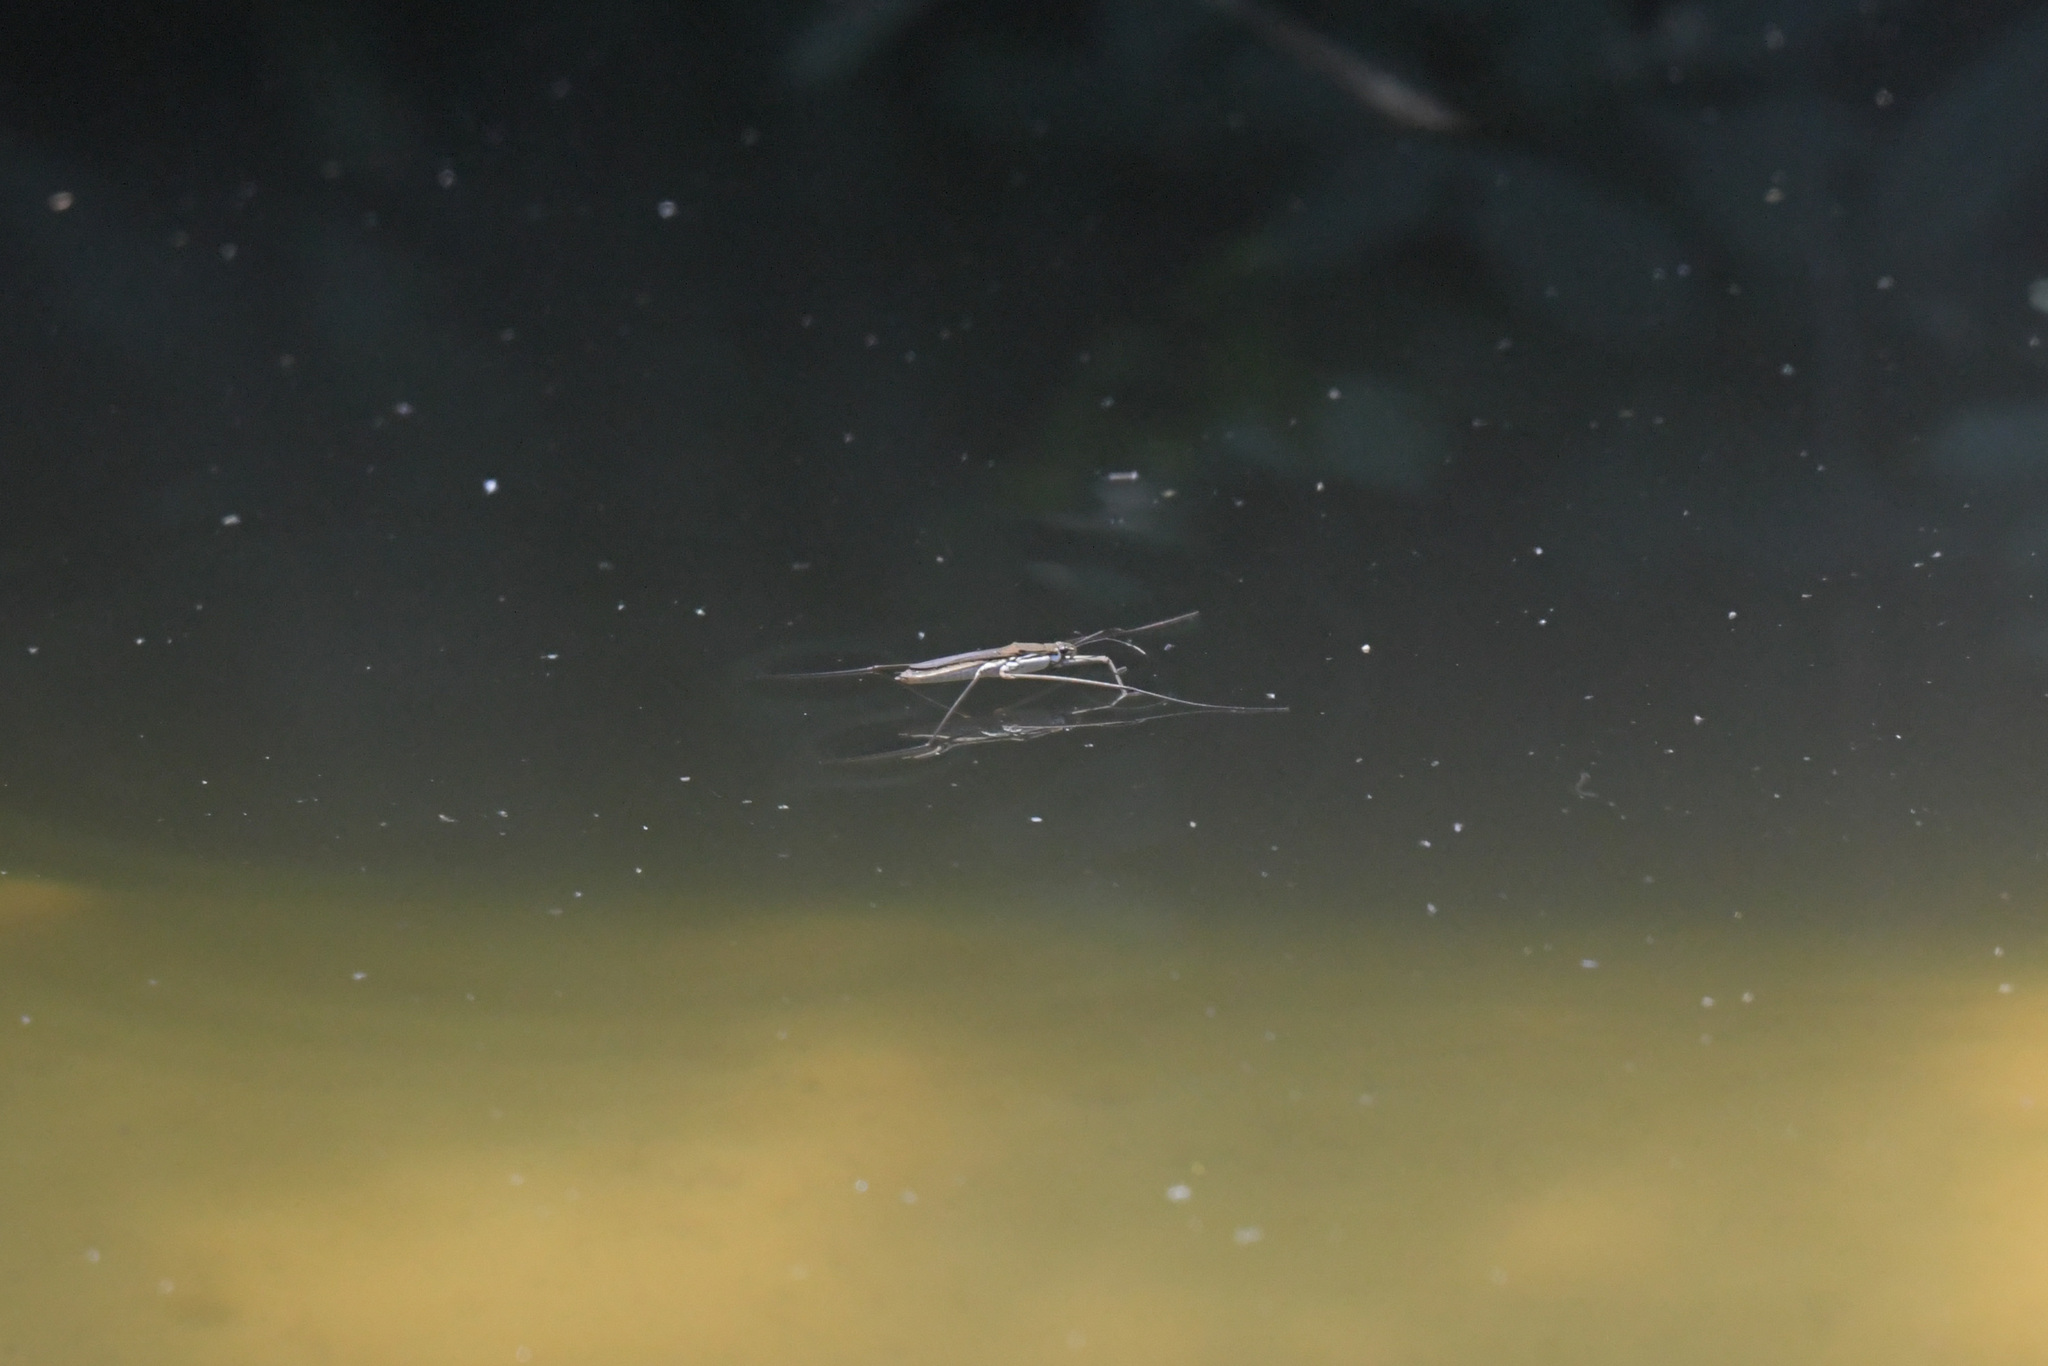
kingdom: Animalia
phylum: Arthropoda
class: Insecta
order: Hemiptera
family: Gerridae
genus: Aquarius
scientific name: Aquarius paludum
